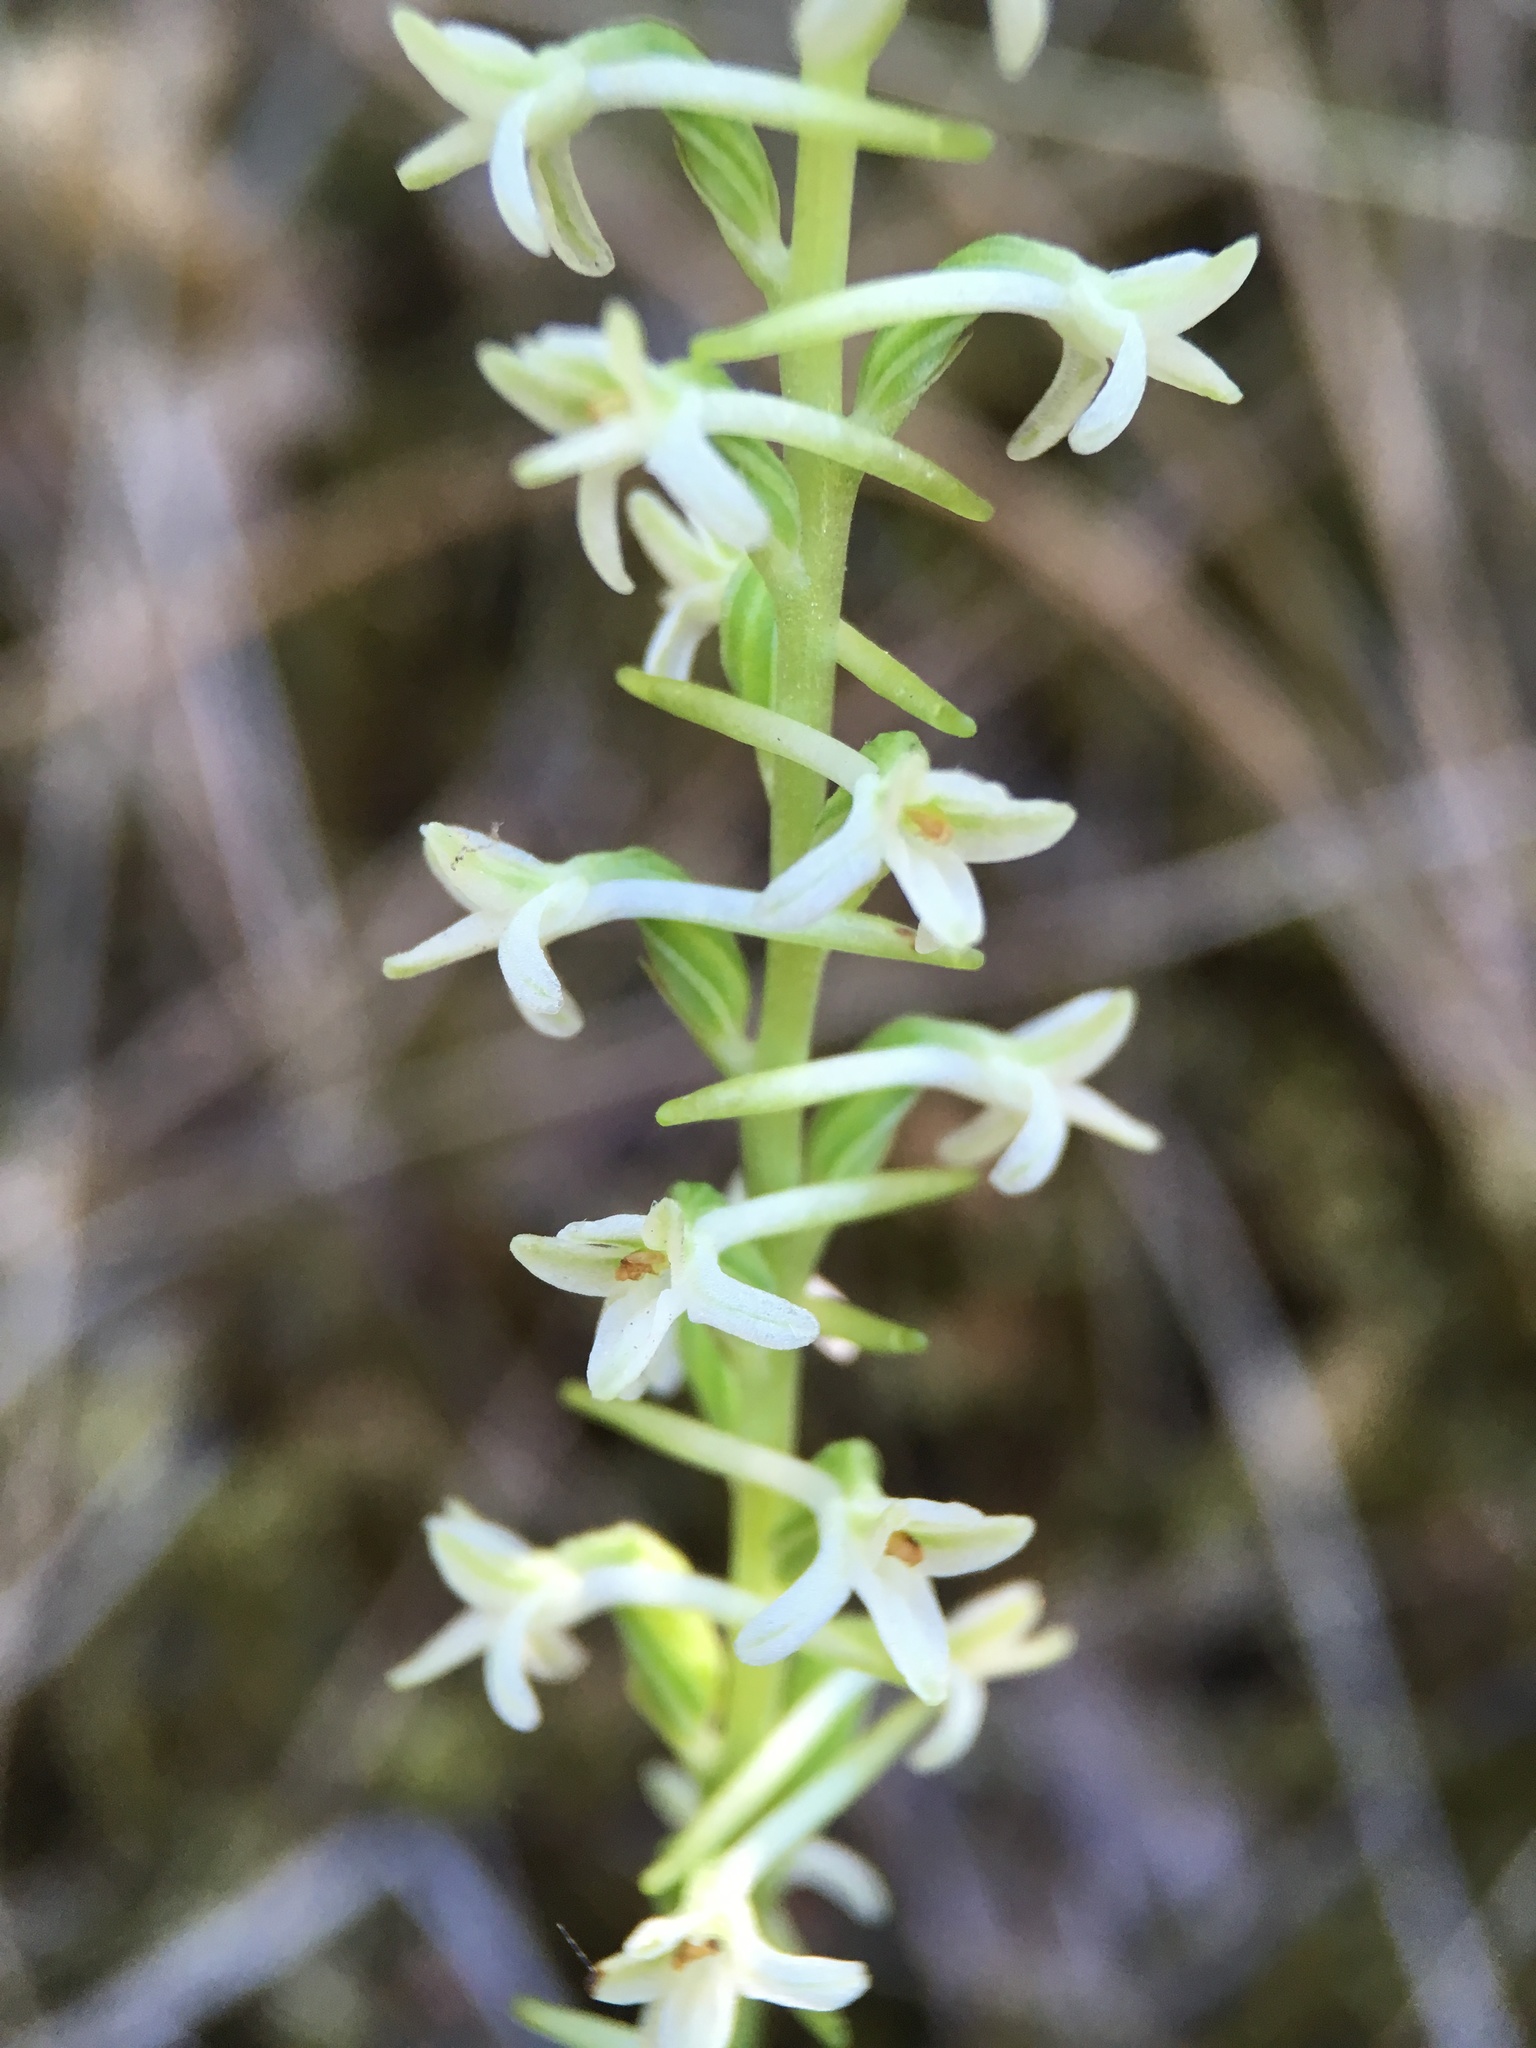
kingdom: Plantae
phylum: Tracheophyta
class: Liliopsida
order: Asparagales
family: Orchidaceae
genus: Platanthera
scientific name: Platanthera transversa
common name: Royal rein orchid
